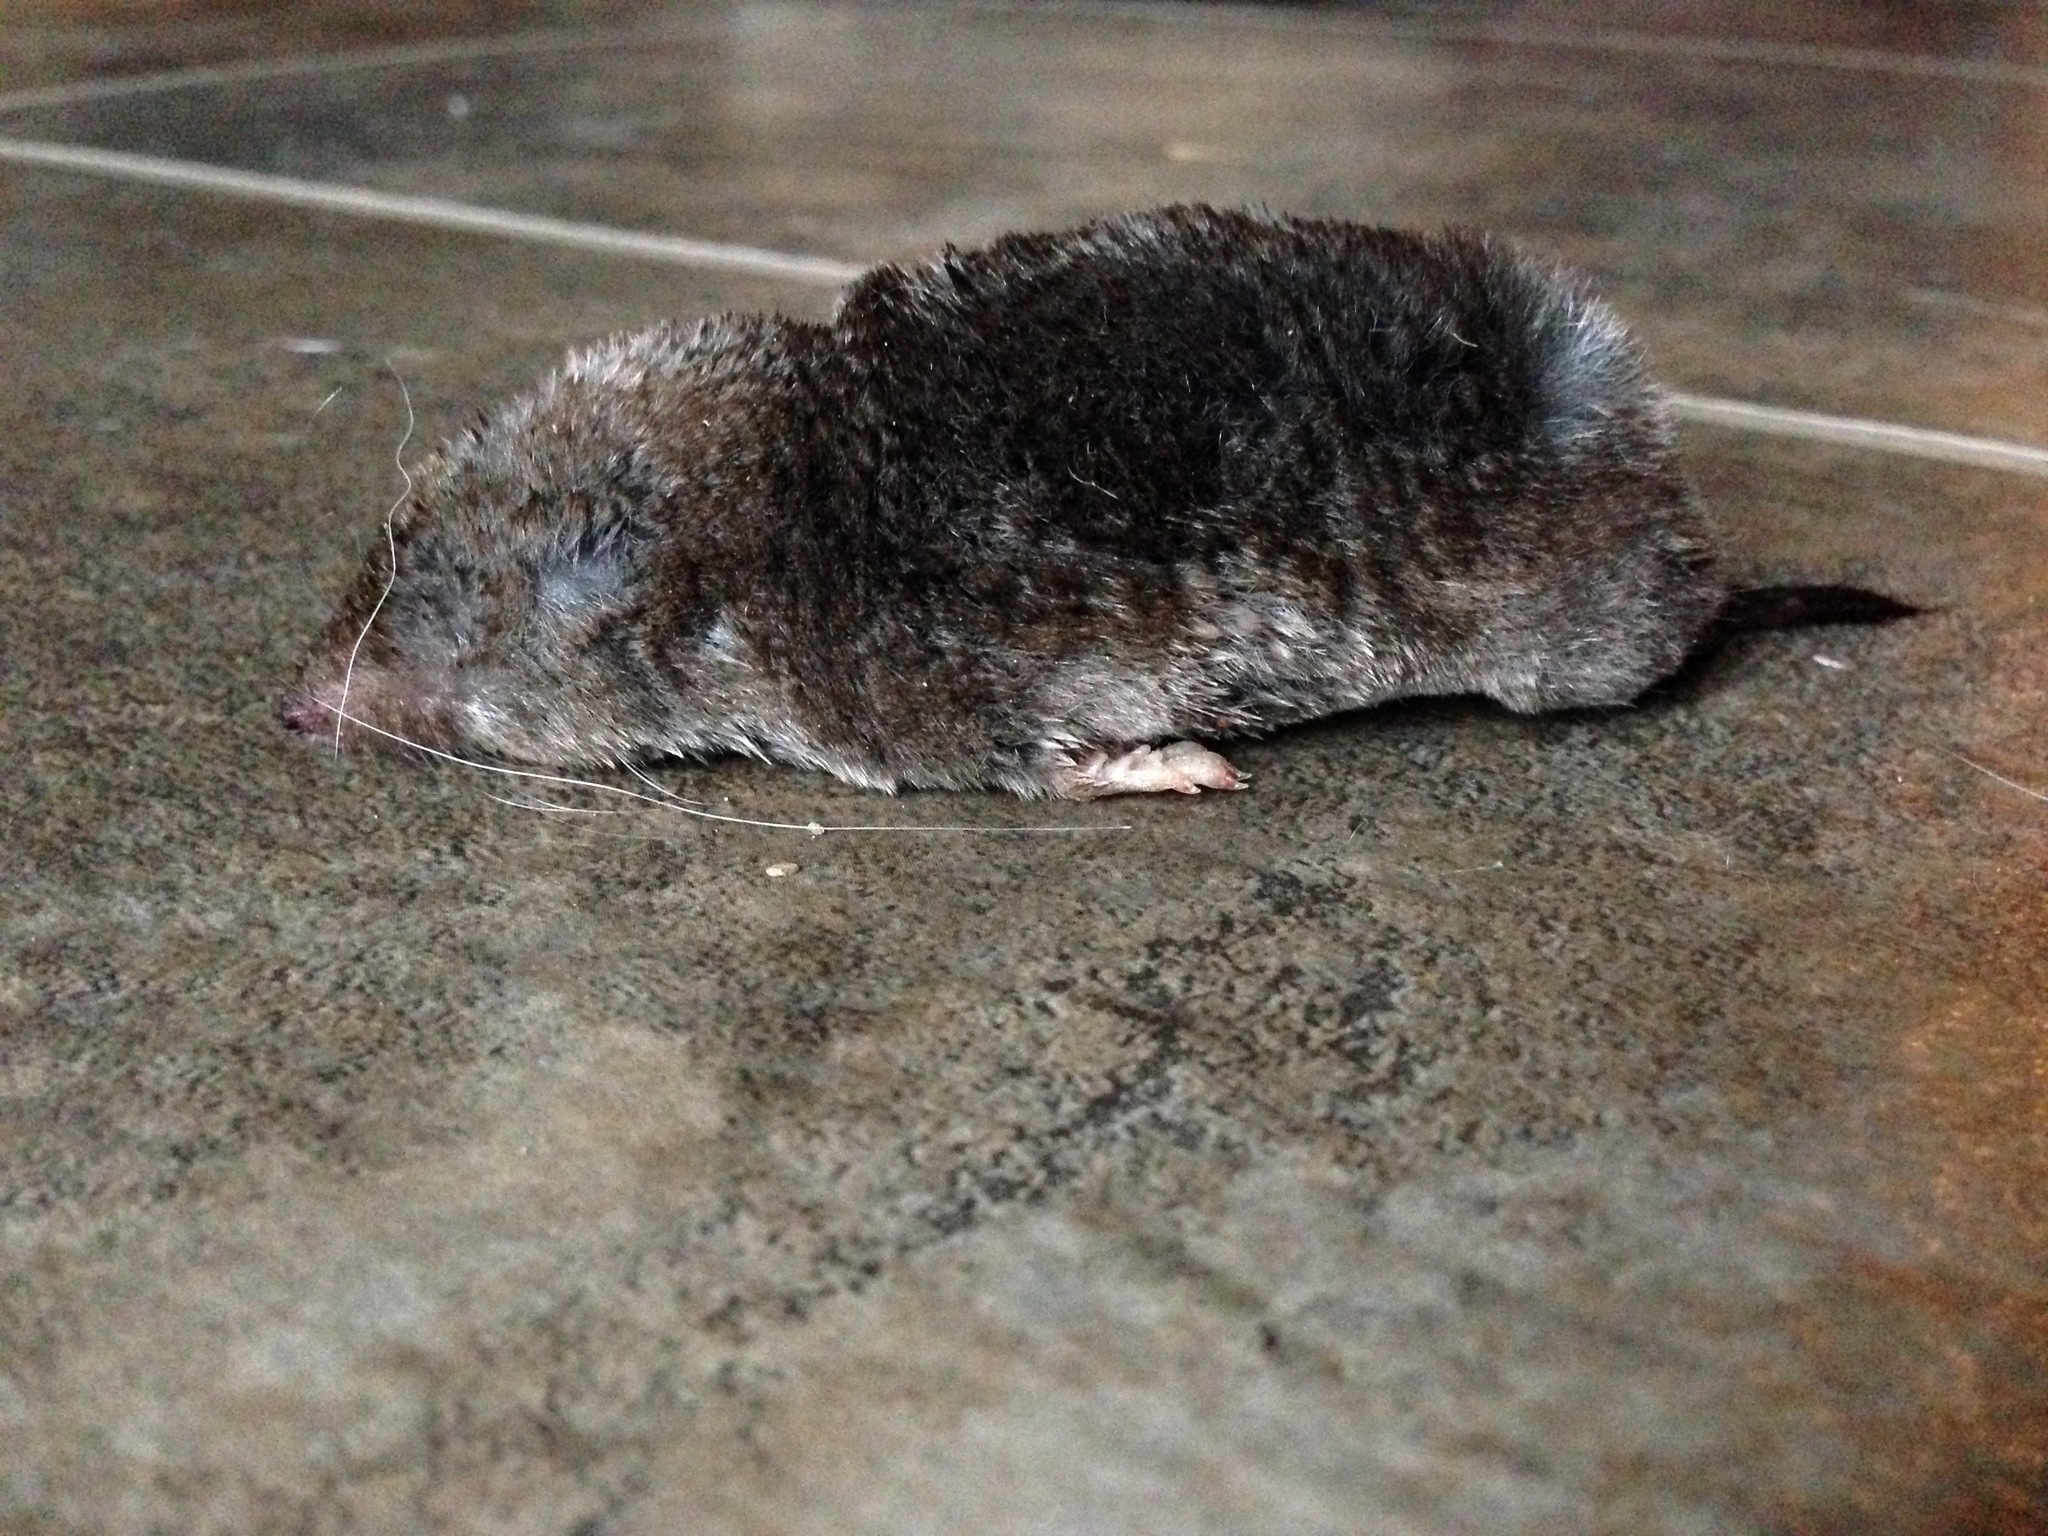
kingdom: Animalia
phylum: Chordata
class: Mammalia
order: Soricomorpha
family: Soricidae
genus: Blarina
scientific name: Blarina brevicauda
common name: Northern short-tailed shrew
